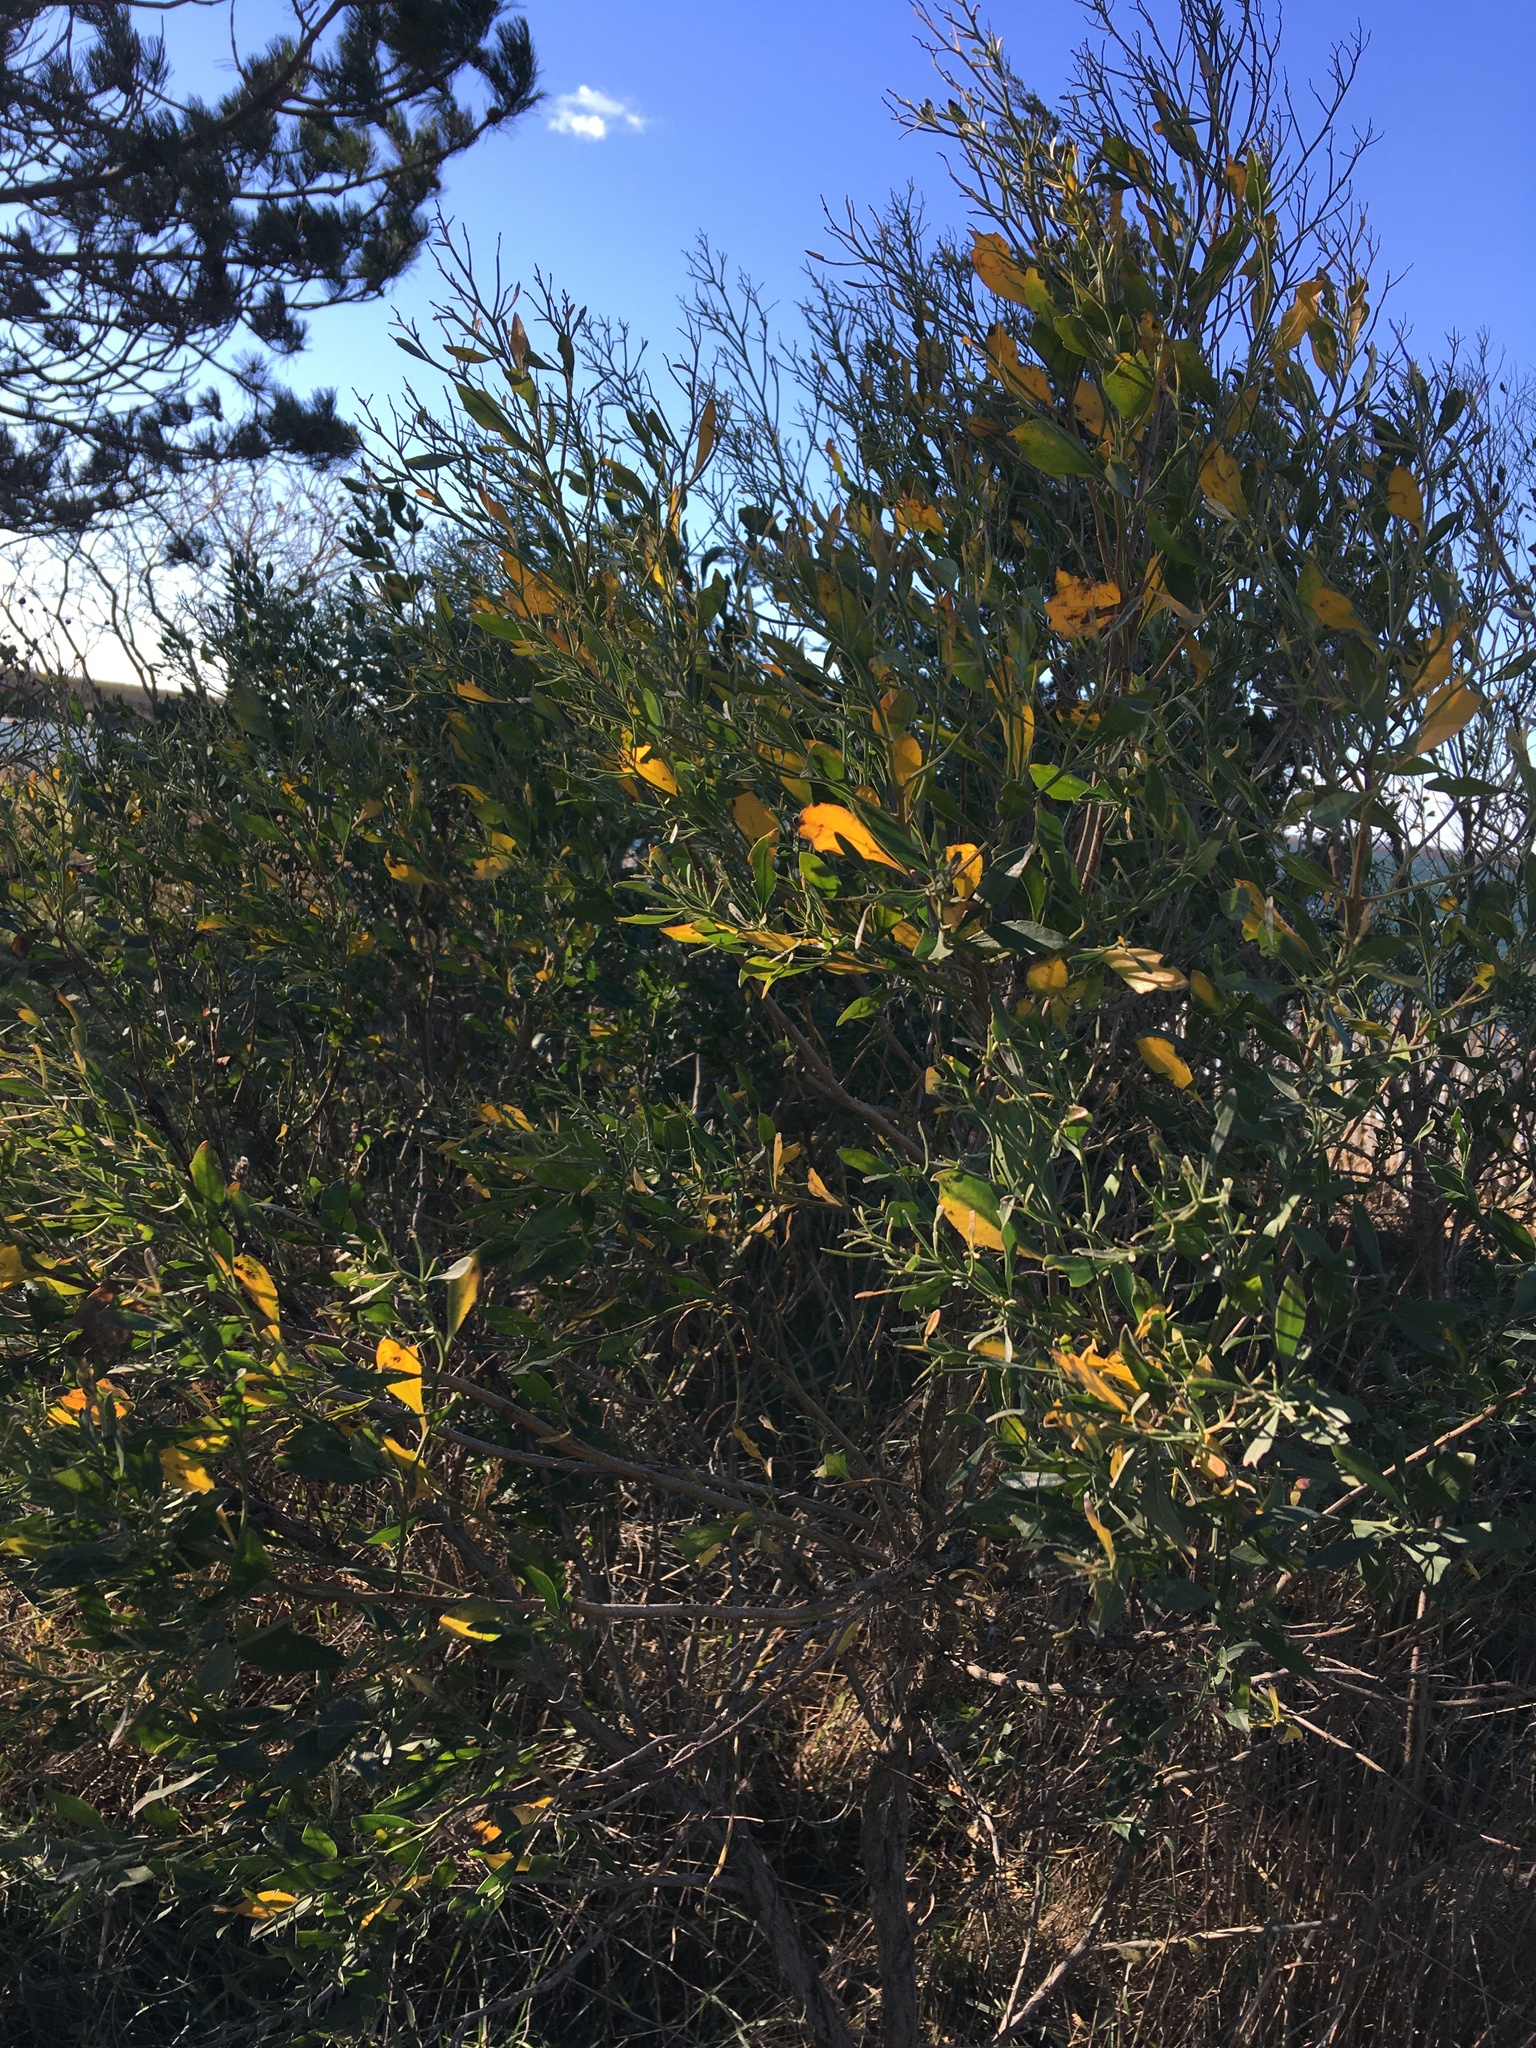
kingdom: Plantae
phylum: Tracheophyta
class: Magnoliopsida
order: Asterales
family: Asteraceae
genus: Baccharis
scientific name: Baccharis halimifolia
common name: Eastern baccharis
